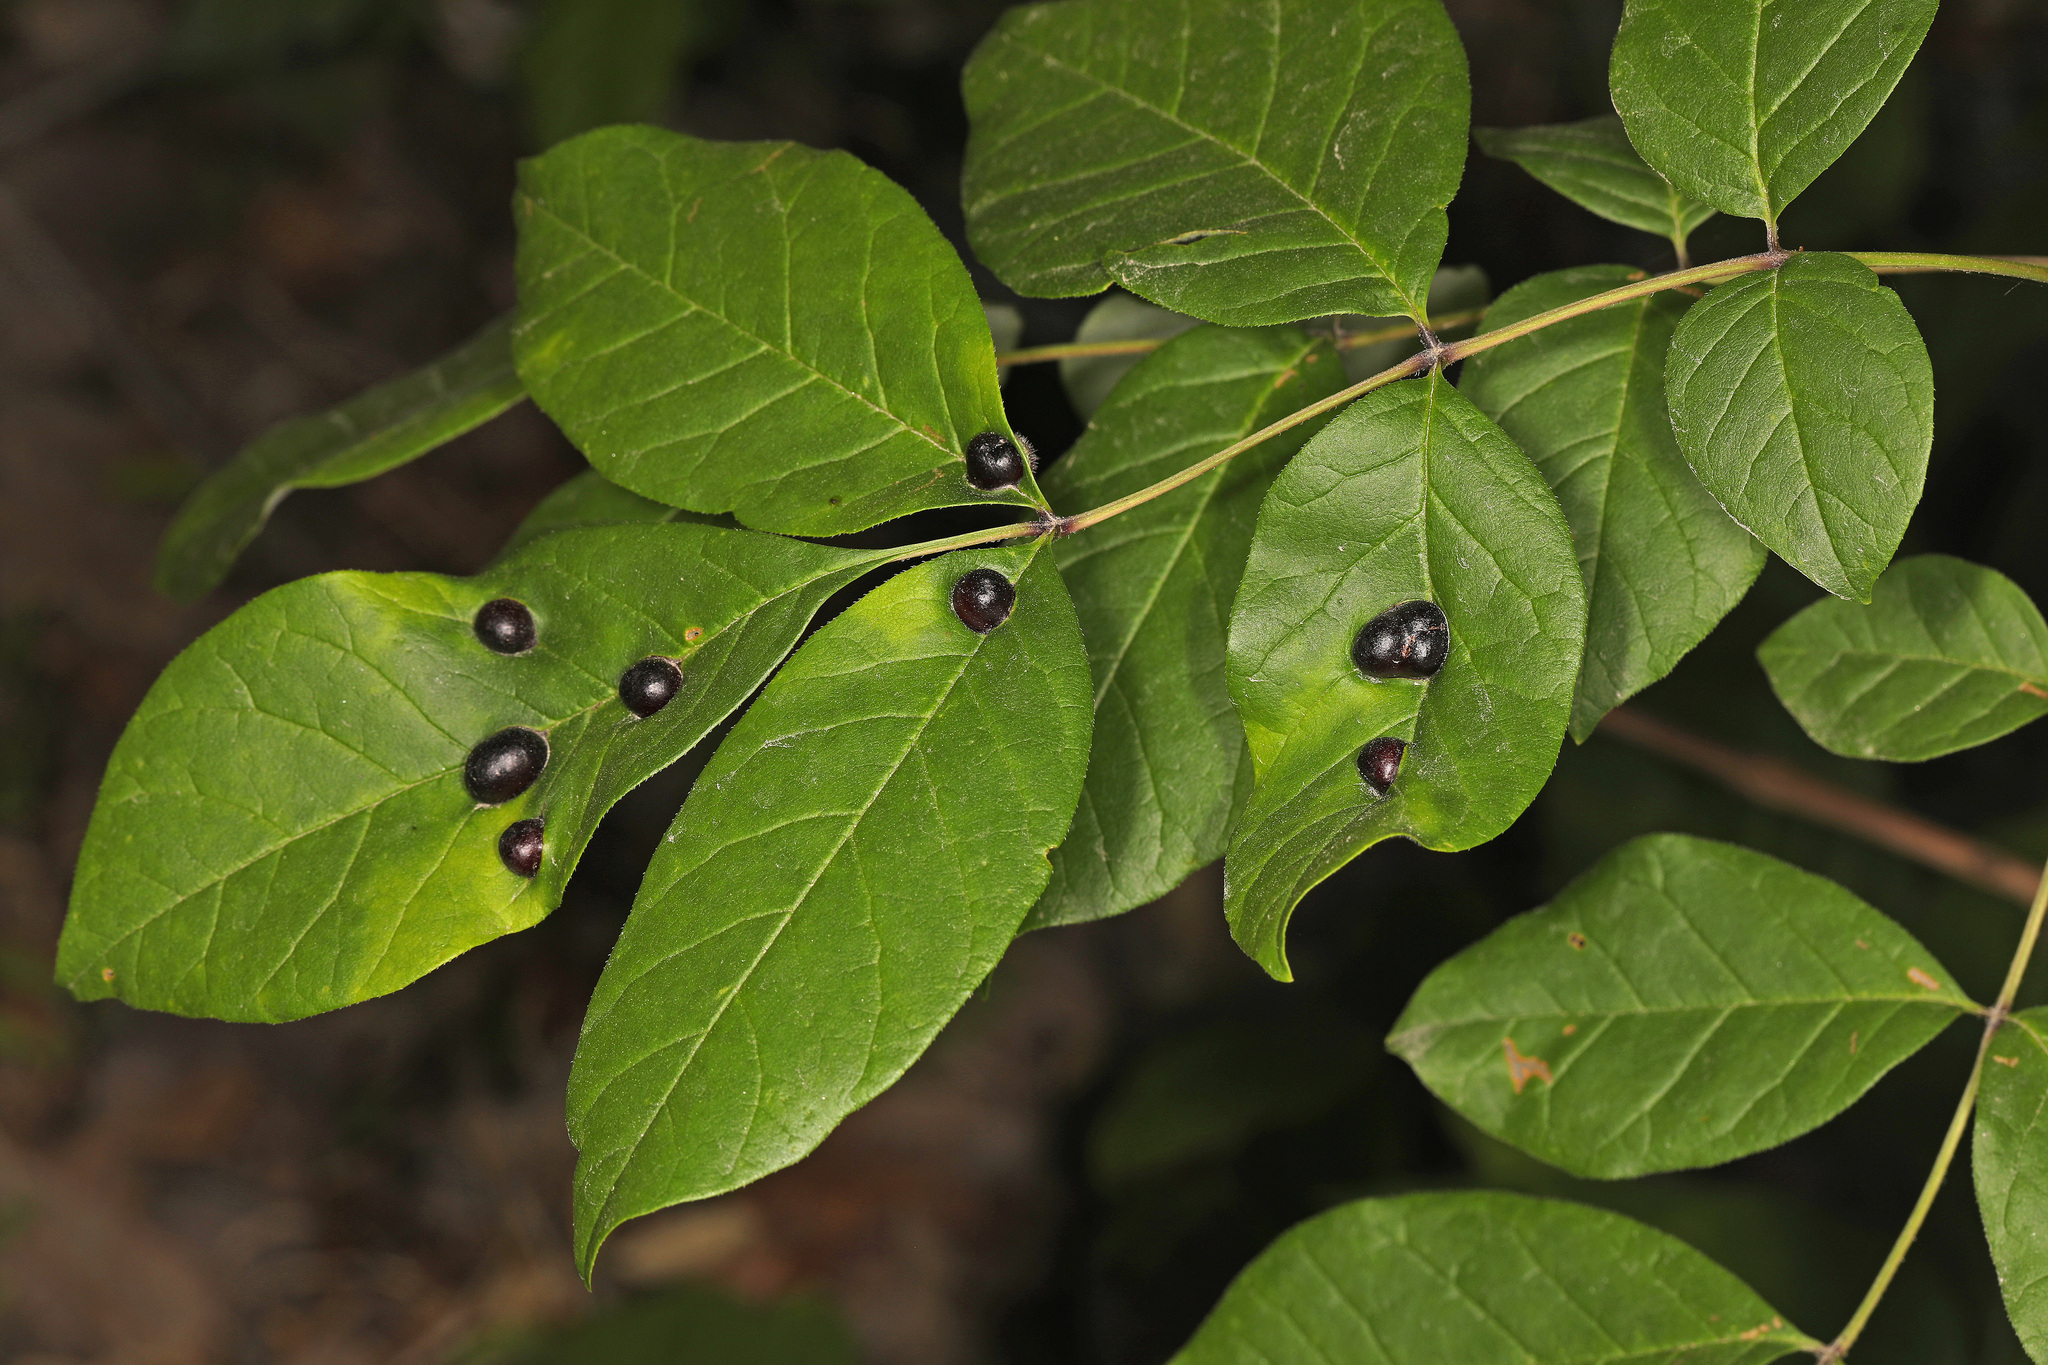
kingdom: Animalia
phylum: Arthropoda
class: Insecta
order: Diptera
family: Cecidomyiidae
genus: Dasineura
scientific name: Dasineura pellex
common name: Ash bullet gall midge
